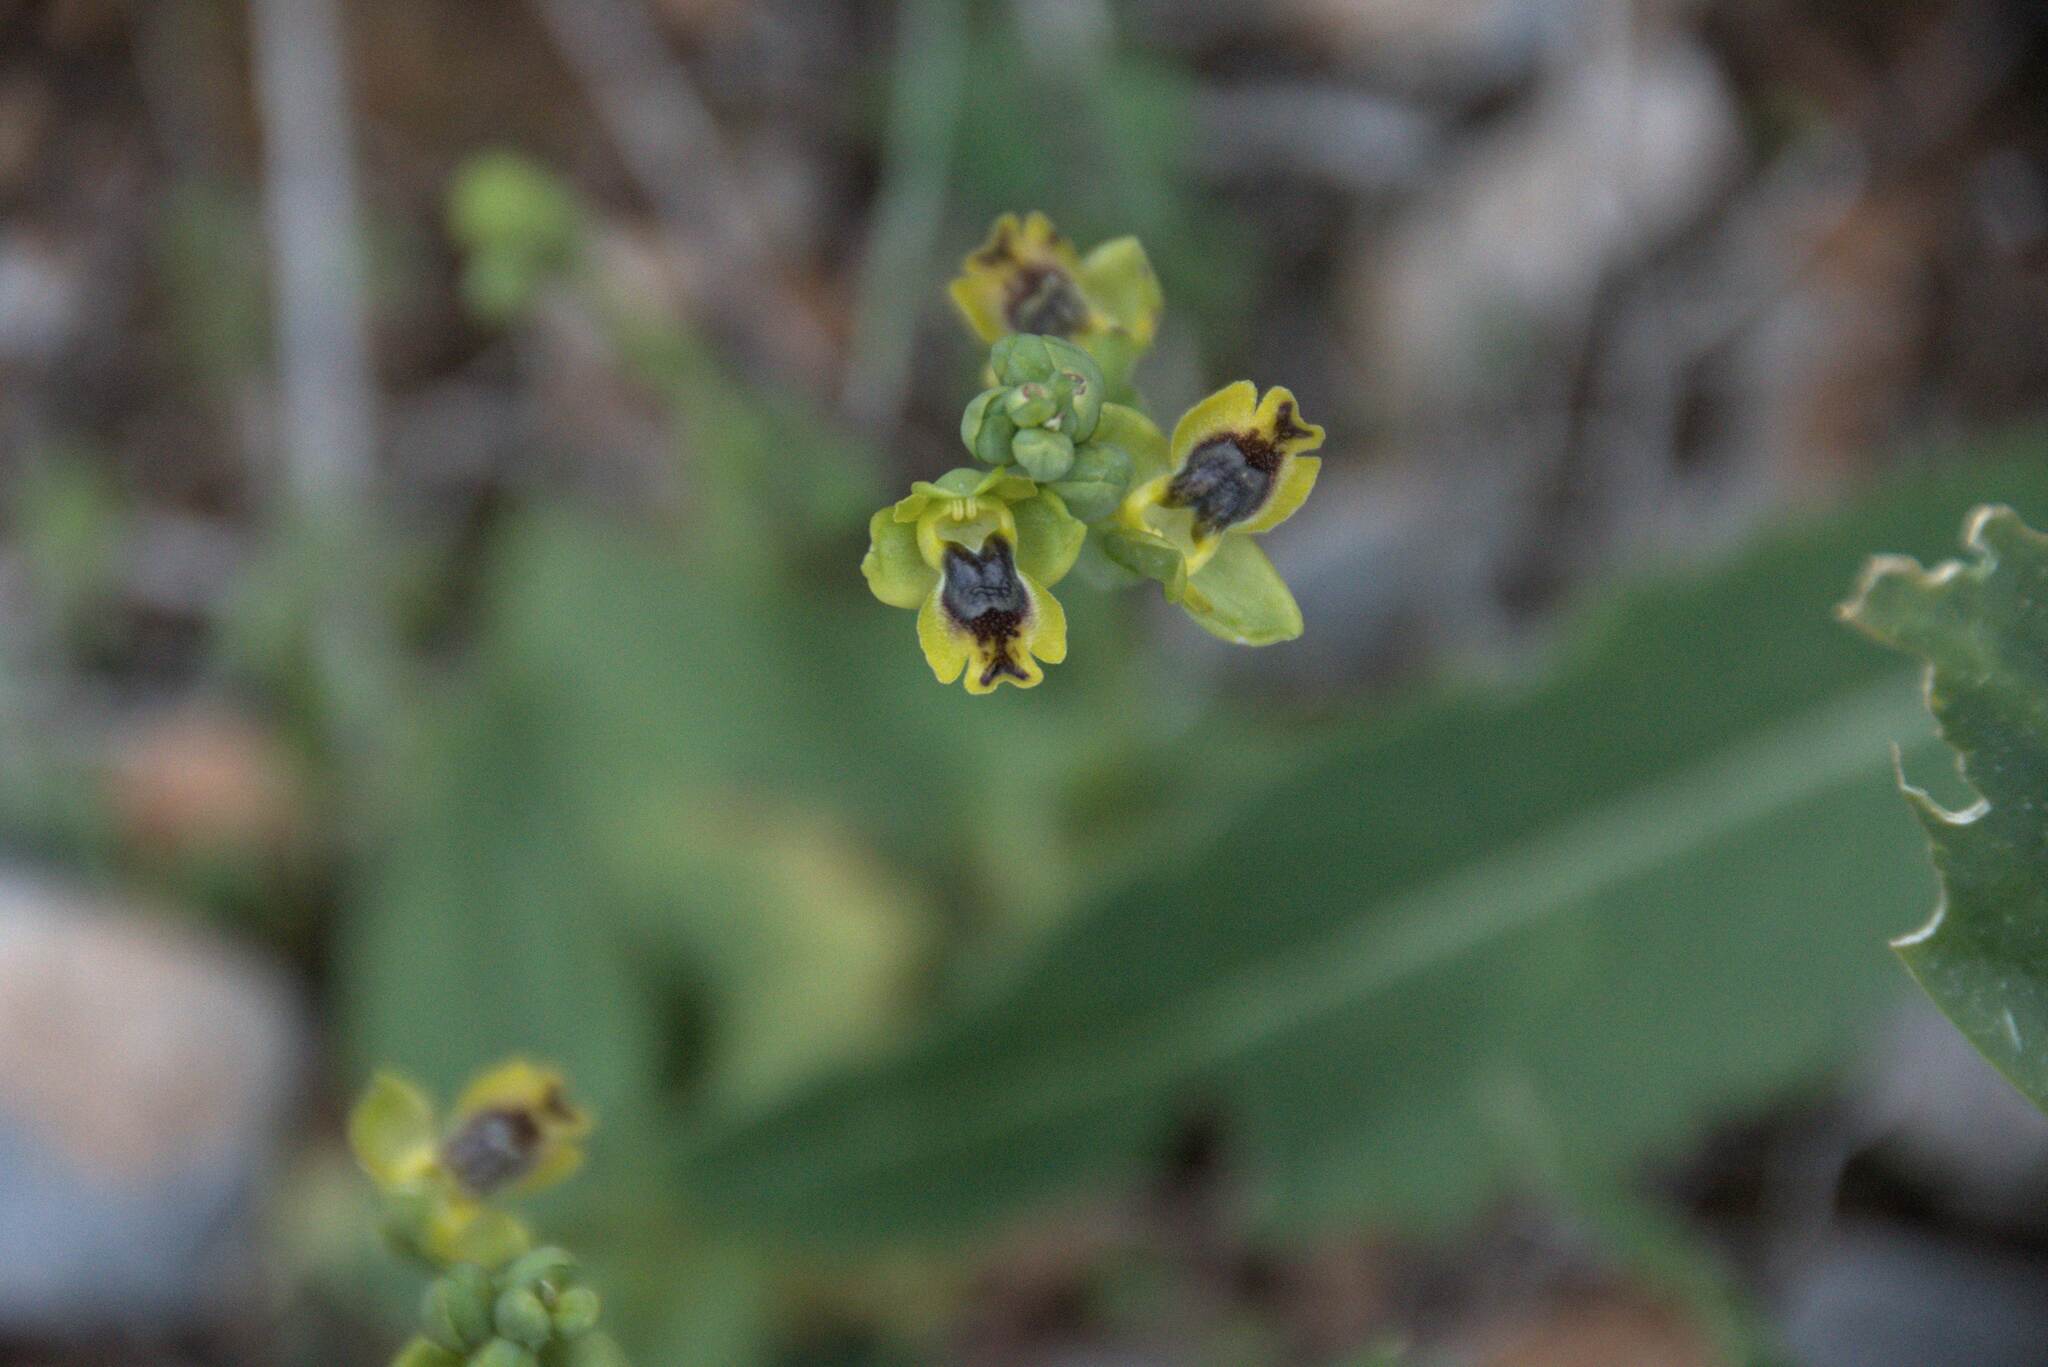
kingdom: Plantae
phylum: Tracheophyta
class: Liliopsida
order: Asparagales
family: Orchidaceae
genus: Ophrys
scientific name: Ophrys lutea
